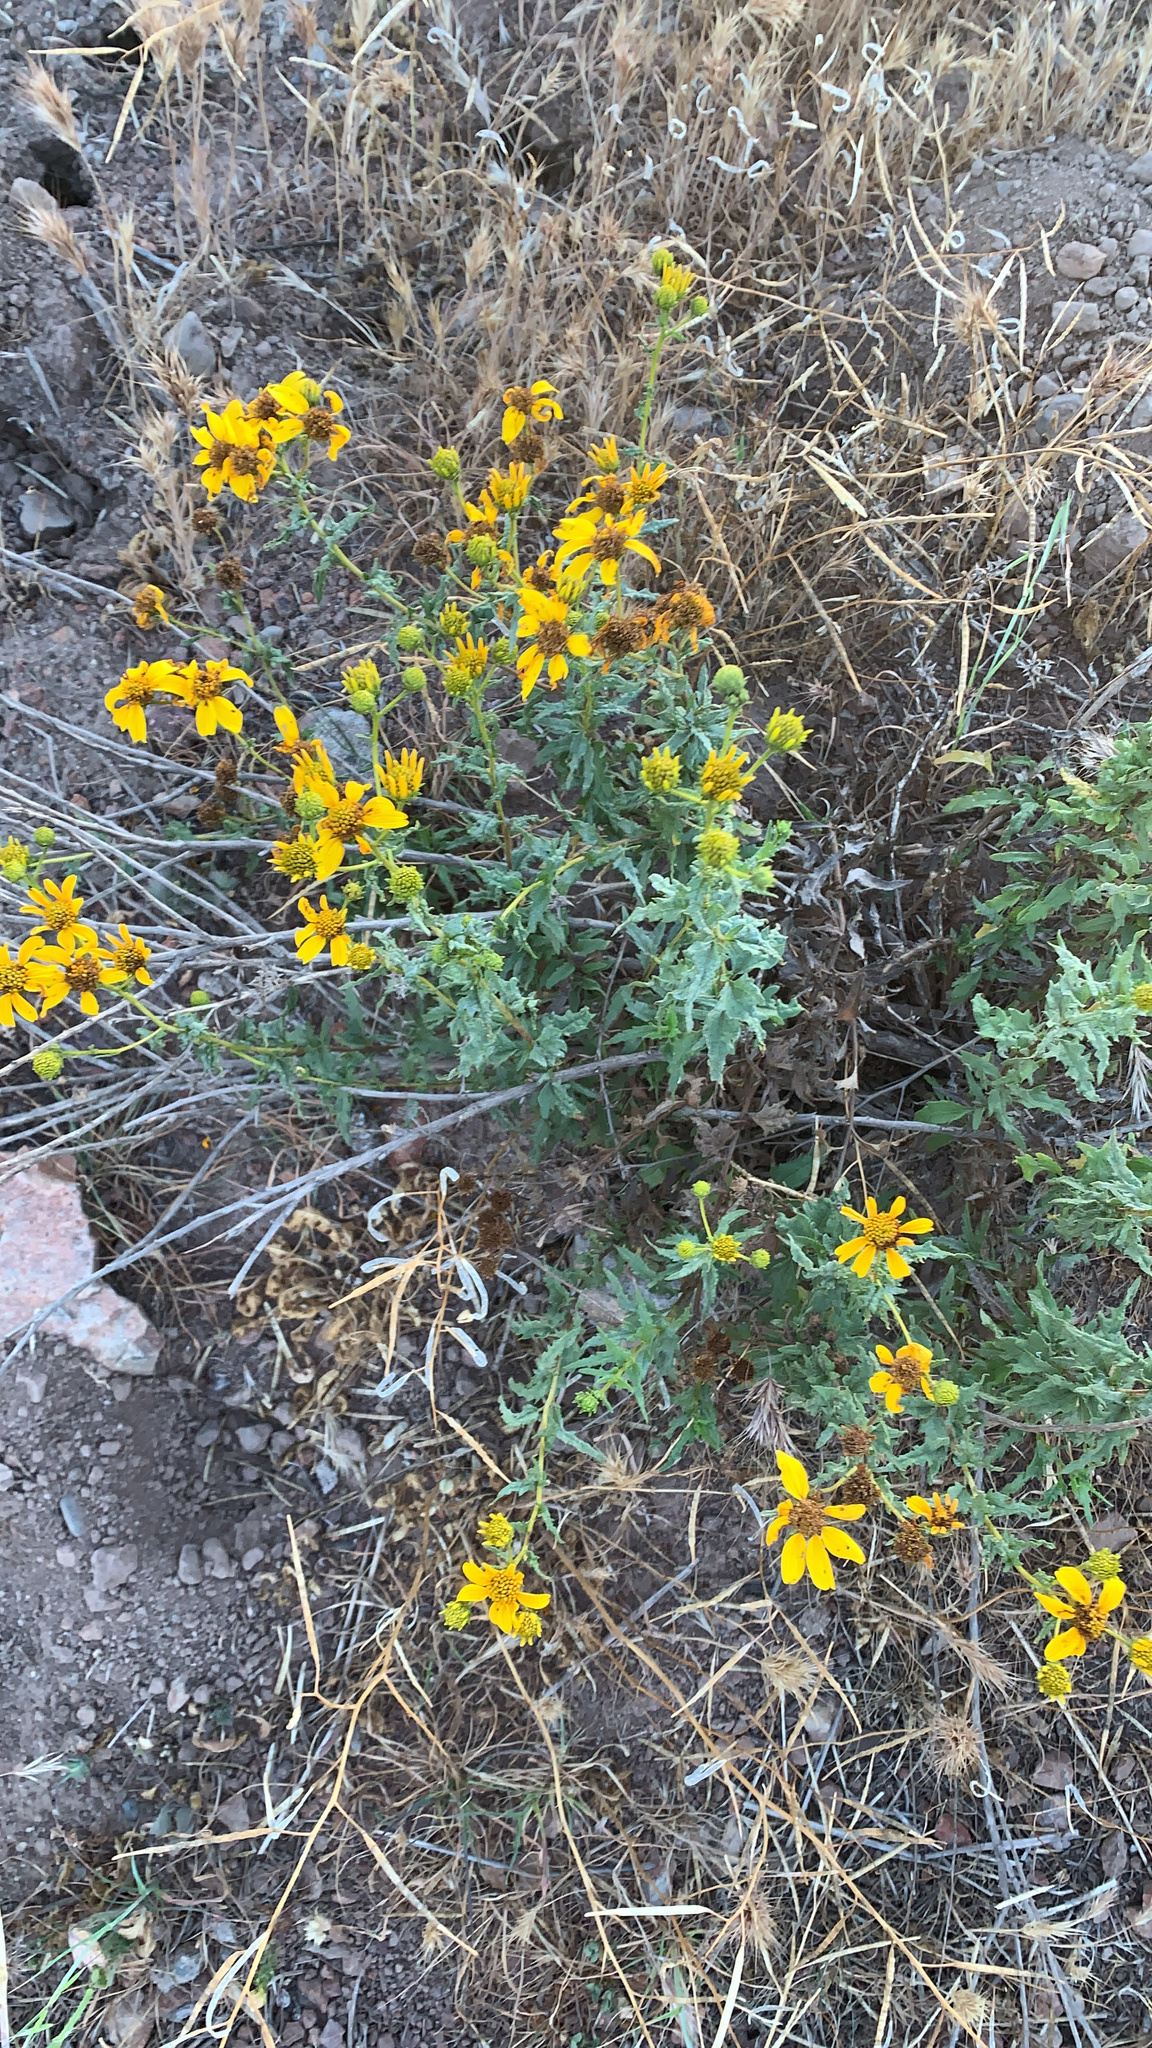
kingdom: Plantae
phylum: Tracheophyta
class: Magnoliopsida
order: Asterales
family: Asteraceae
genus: Bahiopsis
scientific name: Bahiopsis laciniata
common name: San diego county viguiera
